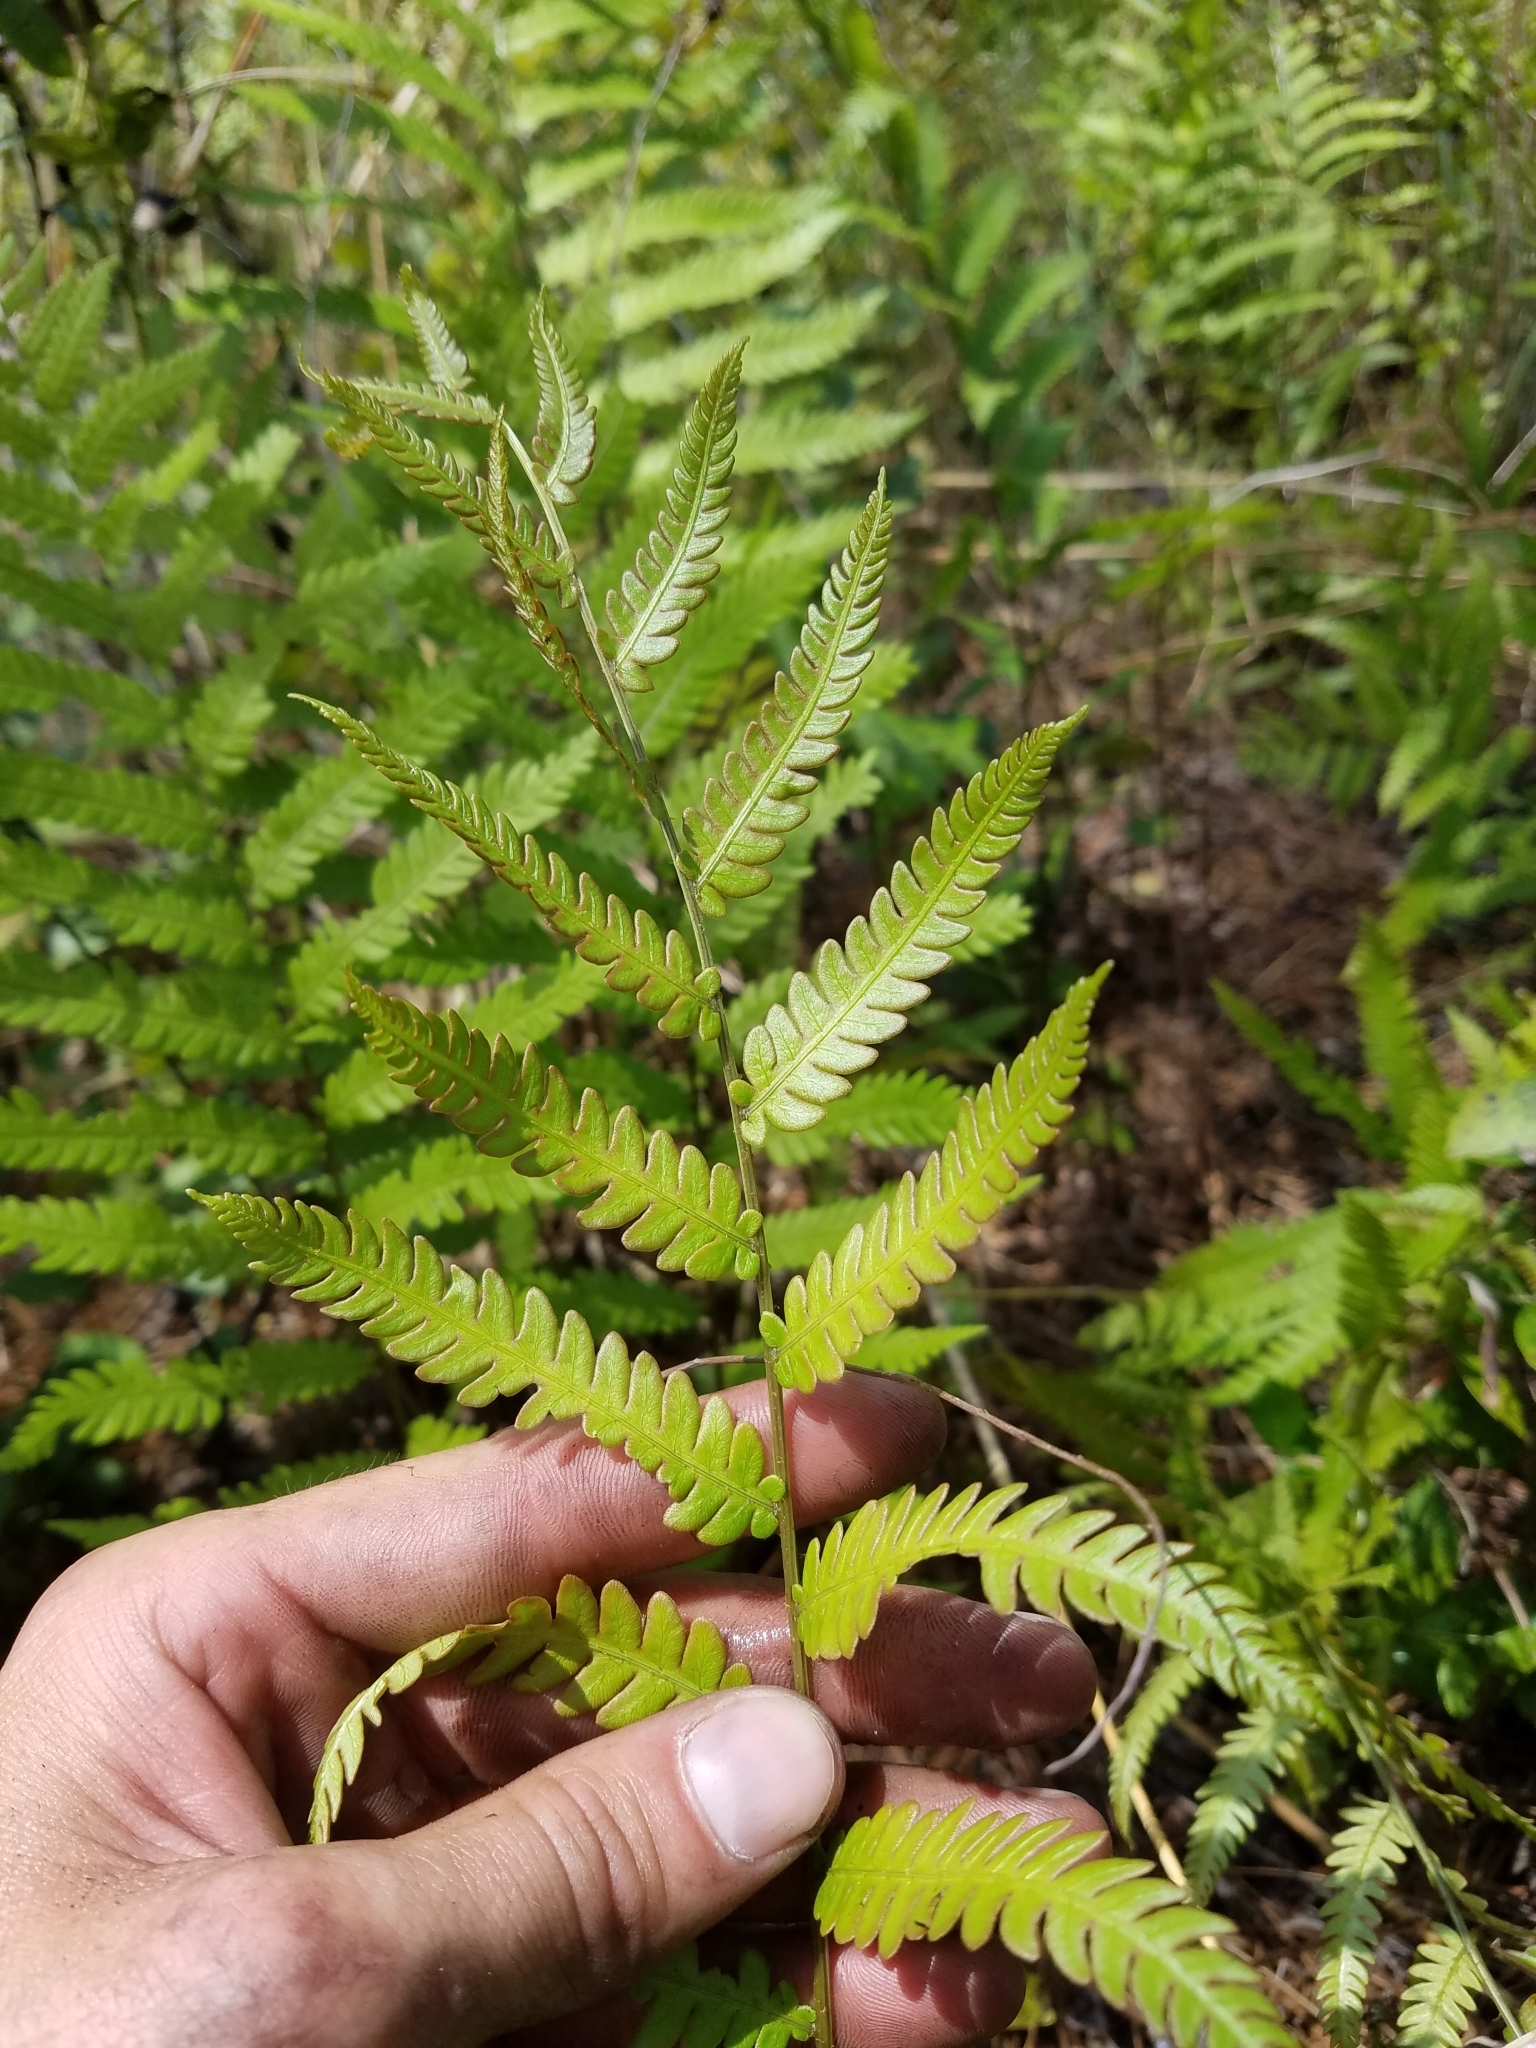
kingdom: Plantae
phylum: Tracheophyta
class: Polypodiopsida
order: Polypodiales
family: Blechnaceae
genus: Anchistea
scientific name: Anchistea virginica
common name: Virginia chain fern
